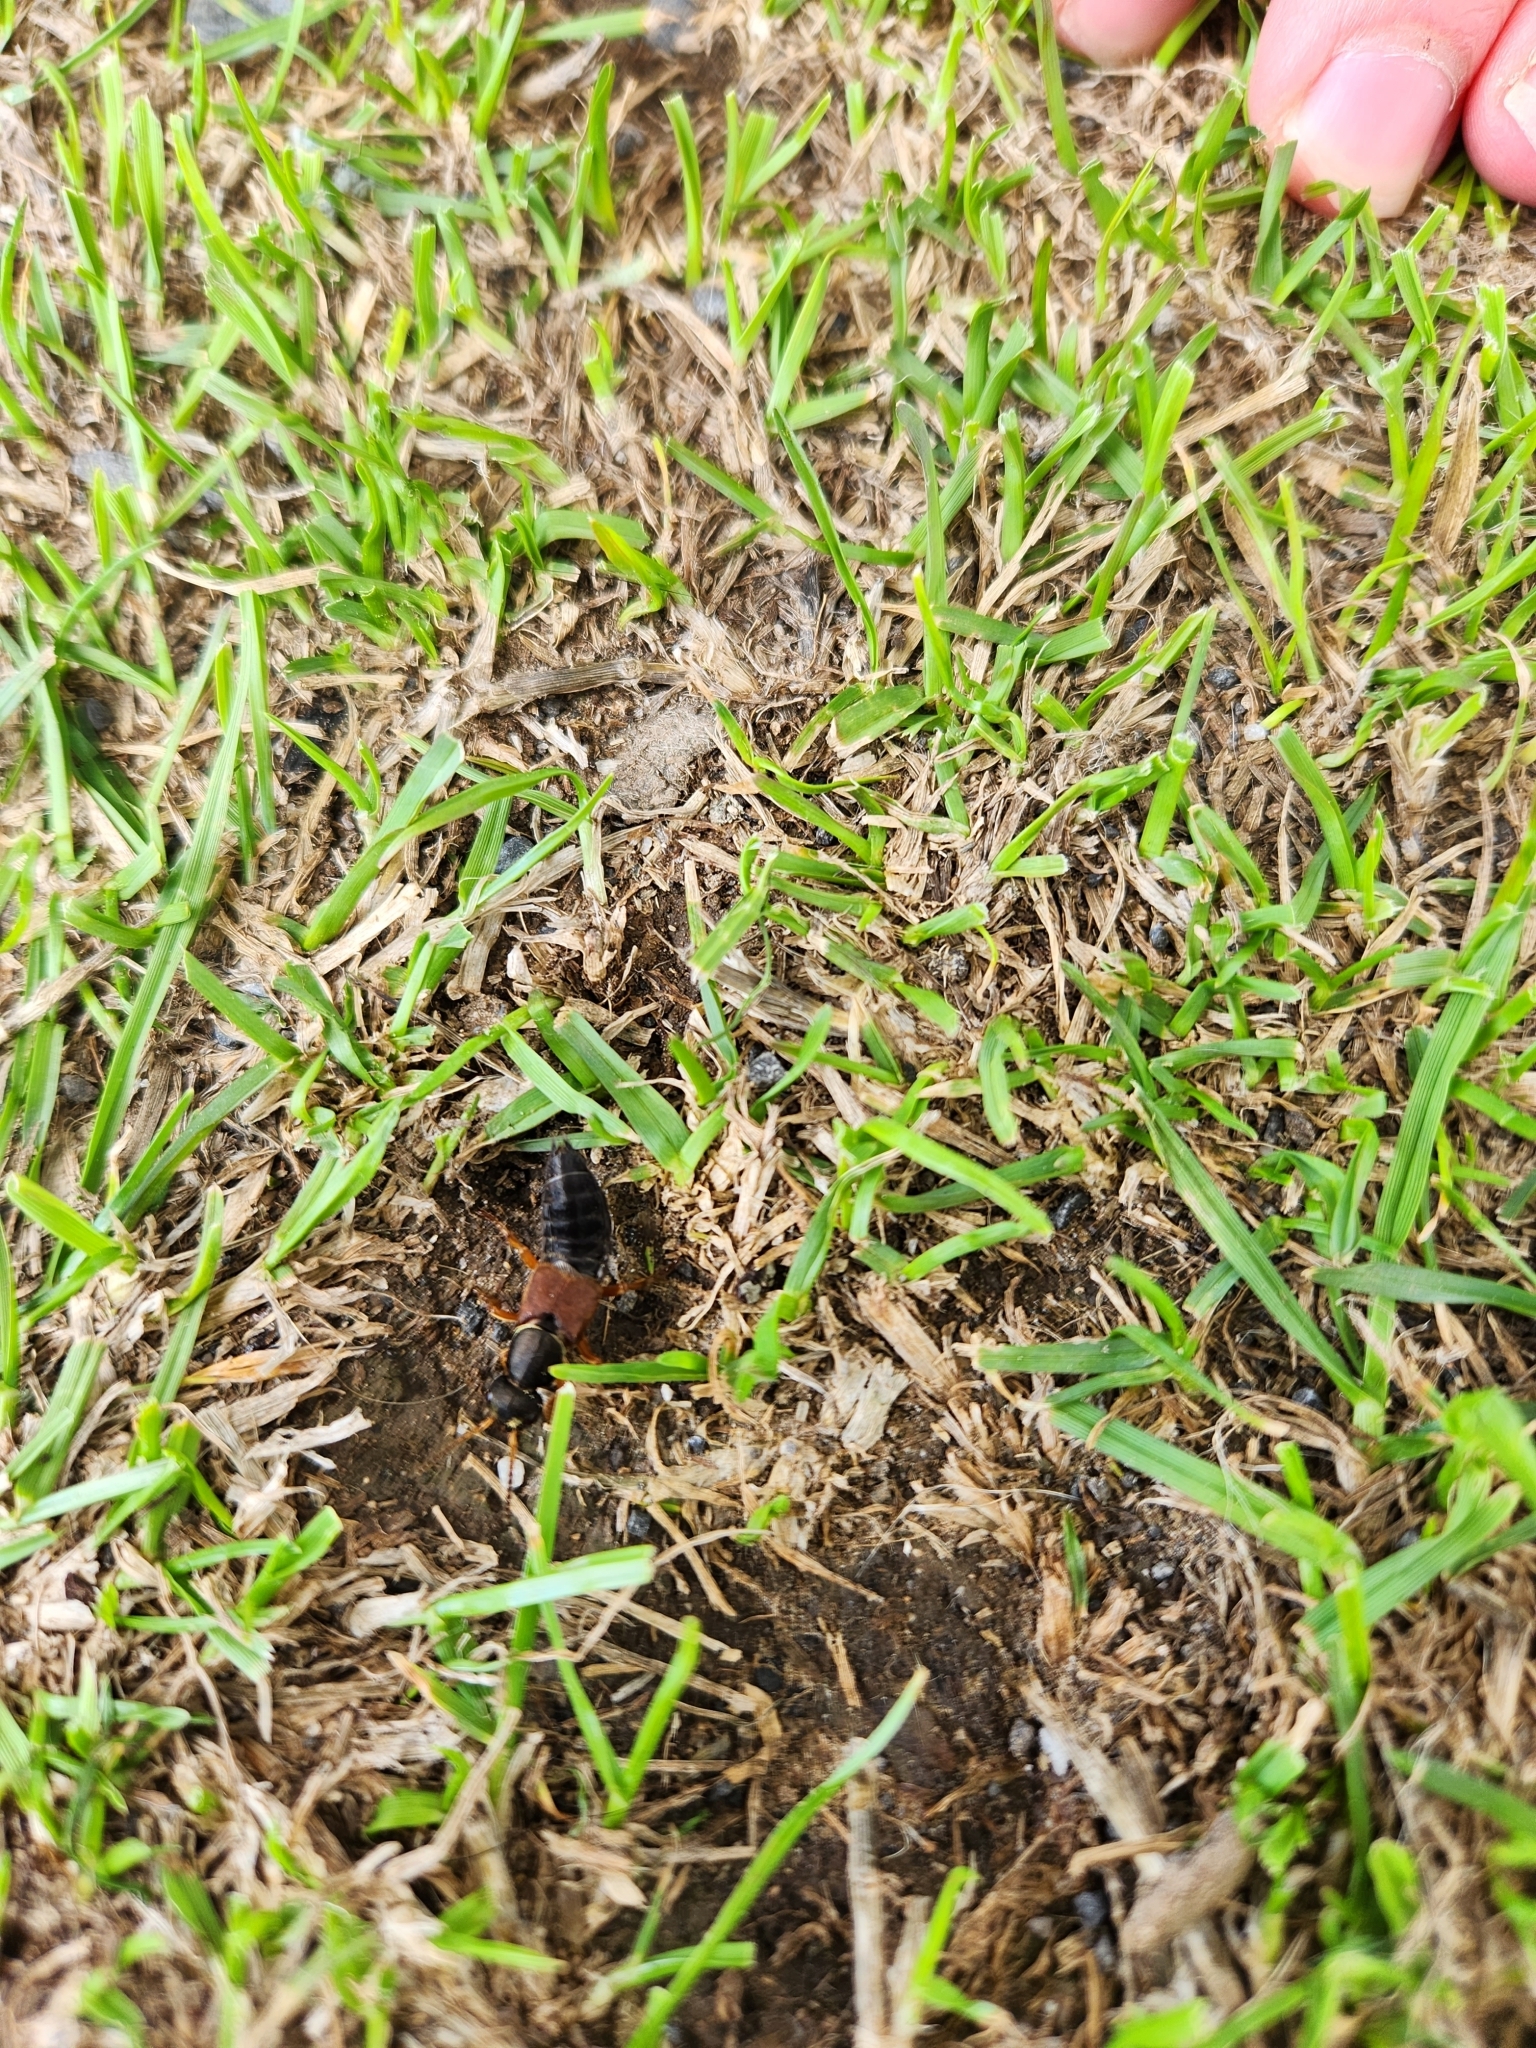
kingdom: Animalia
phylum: Arthropoda
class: Insecta
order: Coleoptera
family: Staphylinidae
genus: Staphylinus
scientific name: Staphylinus dimidiaticornis
